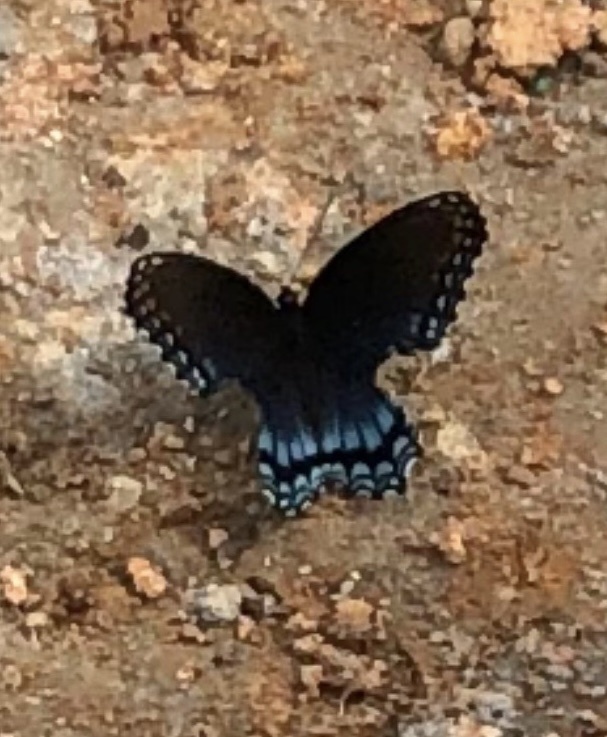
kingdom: Animalia
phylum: Arthropoda
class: Insecta
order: Lepidoptera
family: Nymphalidae
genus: Limenitis
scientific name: Limenitis astyanax
